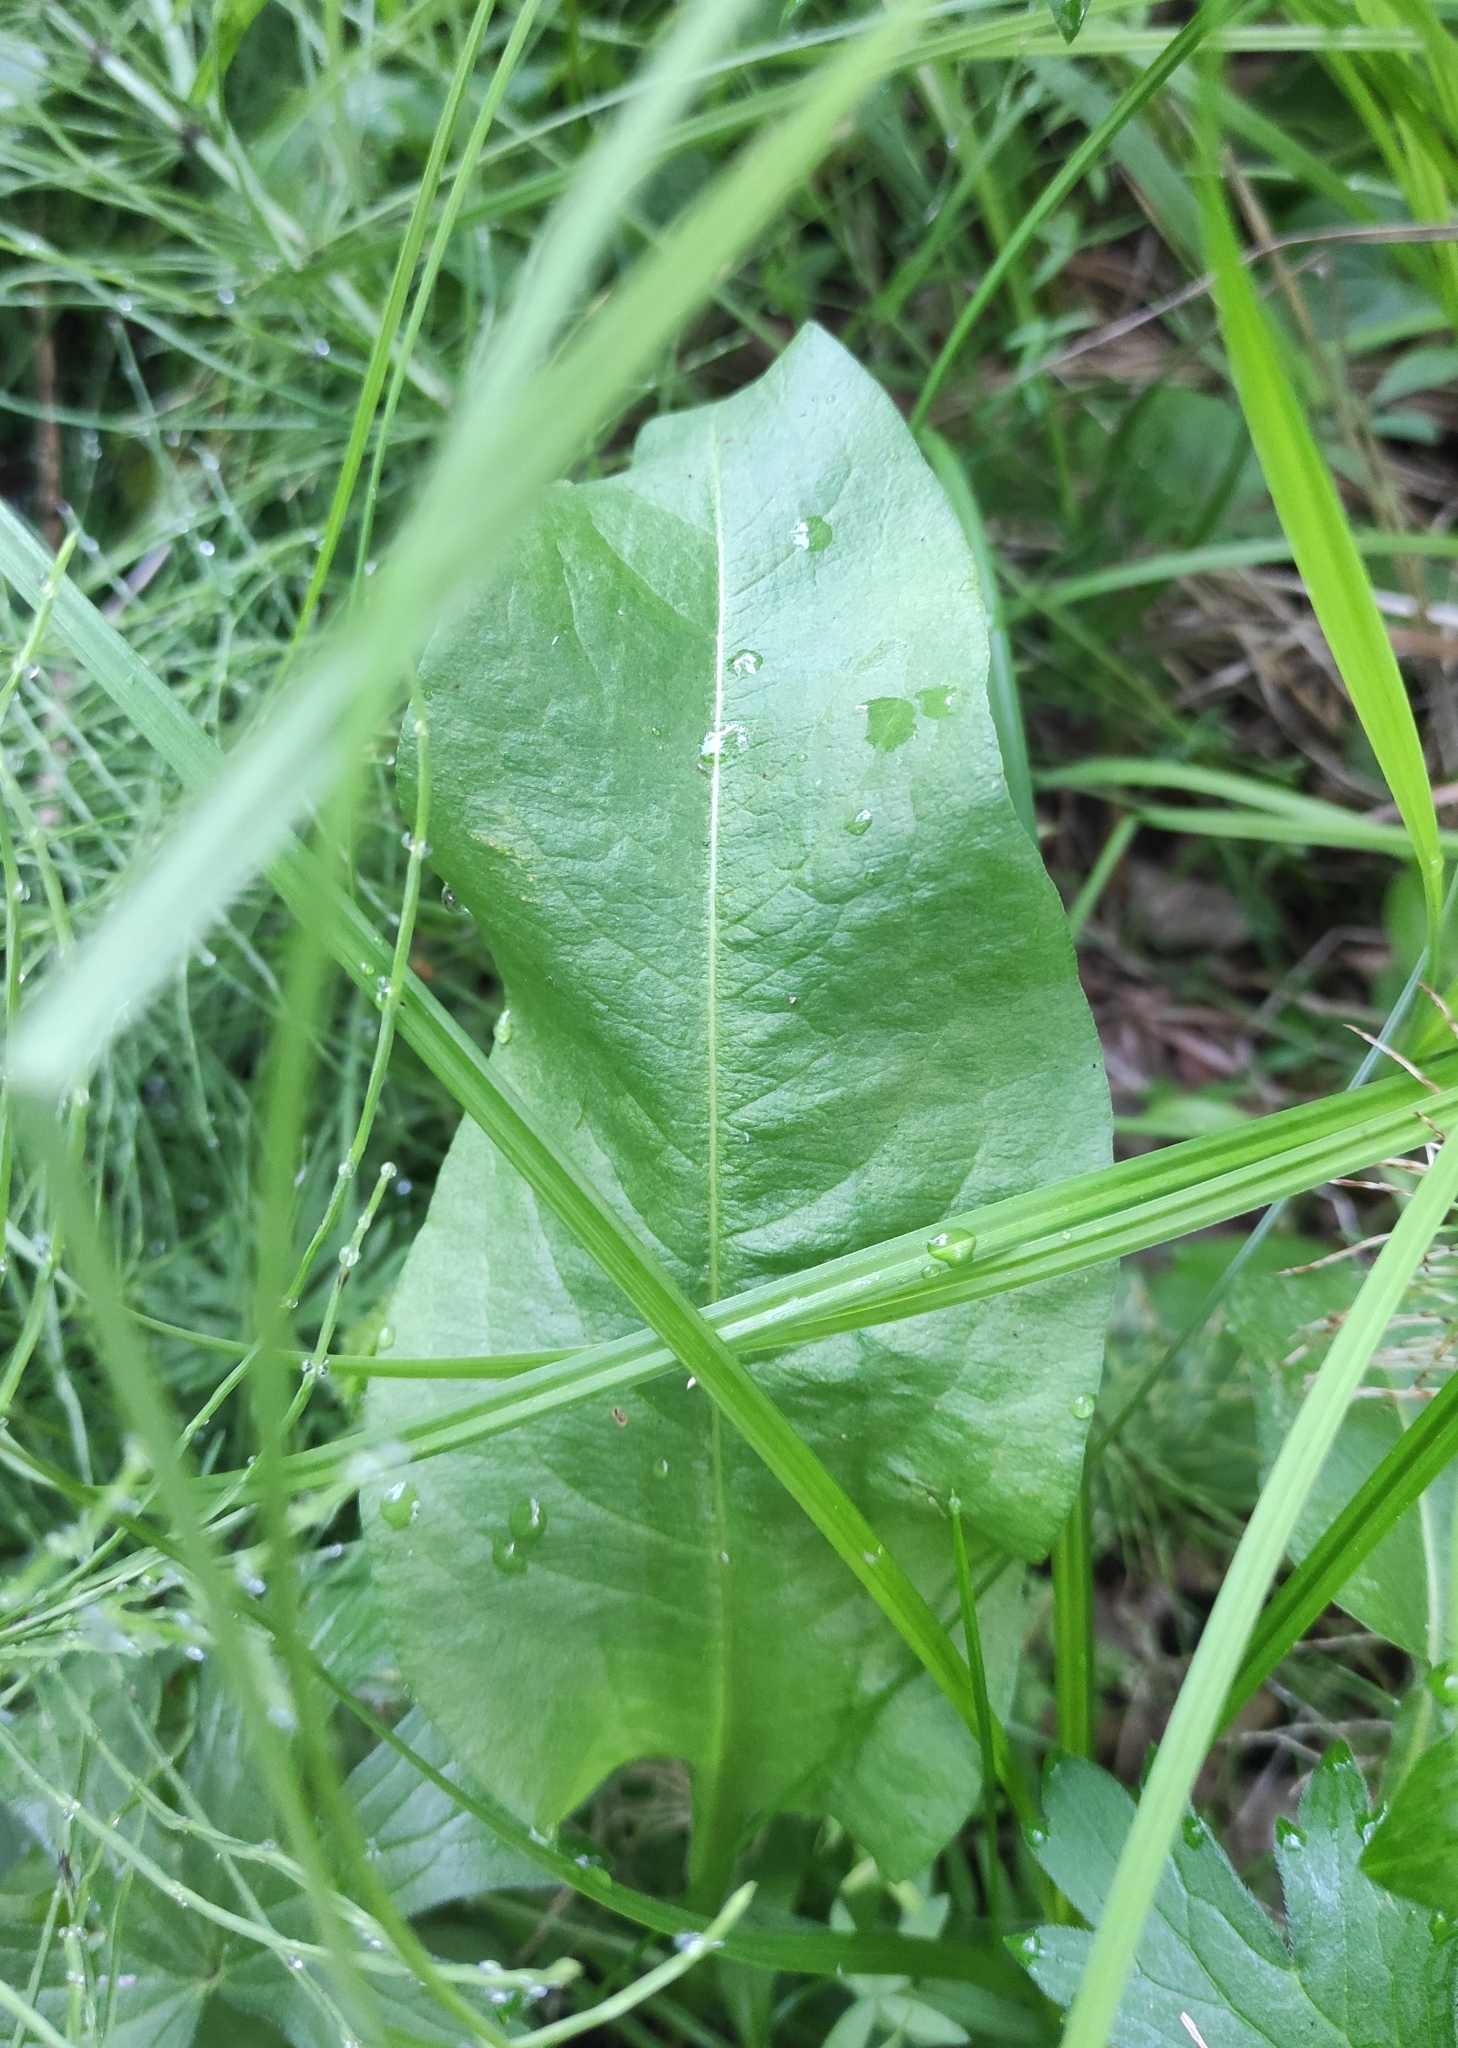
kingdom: Plantae
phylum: Tracheophyta
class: Magnoliopsida
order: Caryophyllales
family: Polygonaceae
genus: Bistorta
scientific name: Bistorta officinalis
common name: Common bistort
